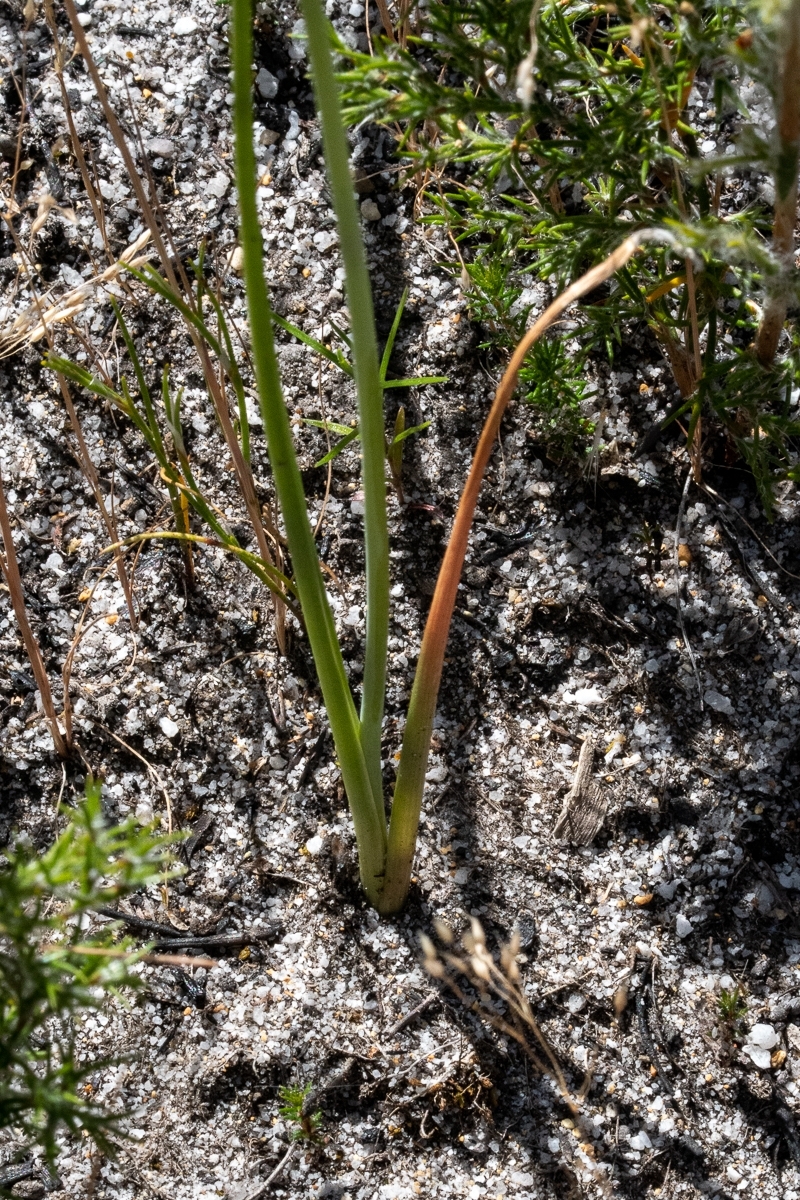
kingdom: Plantae
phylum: Tracheophyta
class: Liliopsida
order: Asparagales
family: Asparagaceae
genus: Albuca
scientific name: Albuca cooperi
